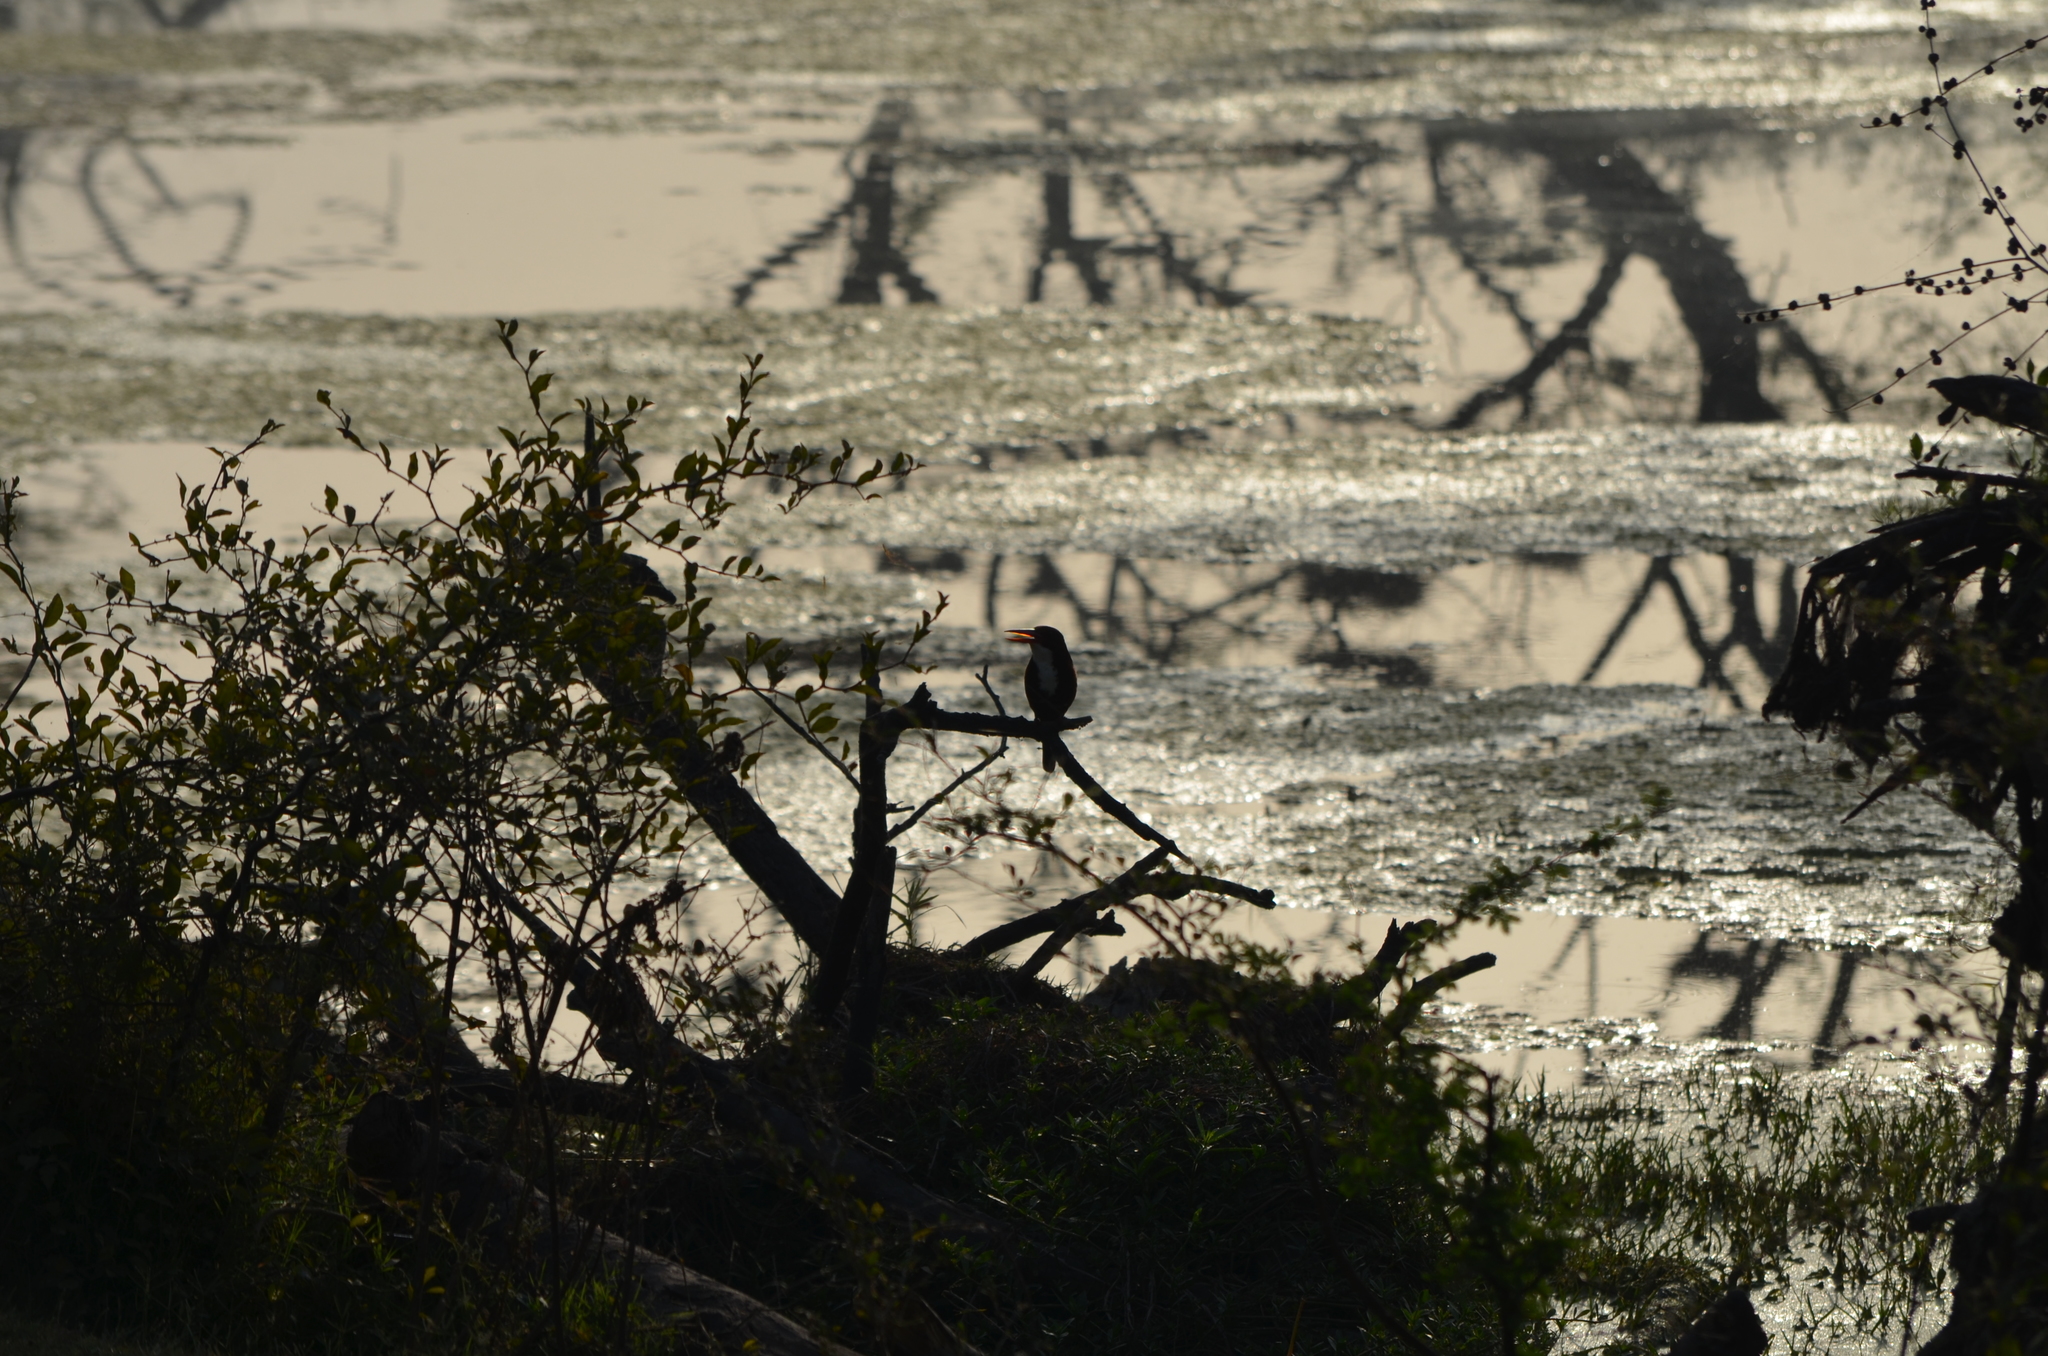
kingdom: Animalia
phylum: Chordata
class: Aves
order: Coraciiformes
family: Alcedinidae
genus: Halcyon
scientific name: Halcyon smyrnensis
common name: White-throated kingfisher
